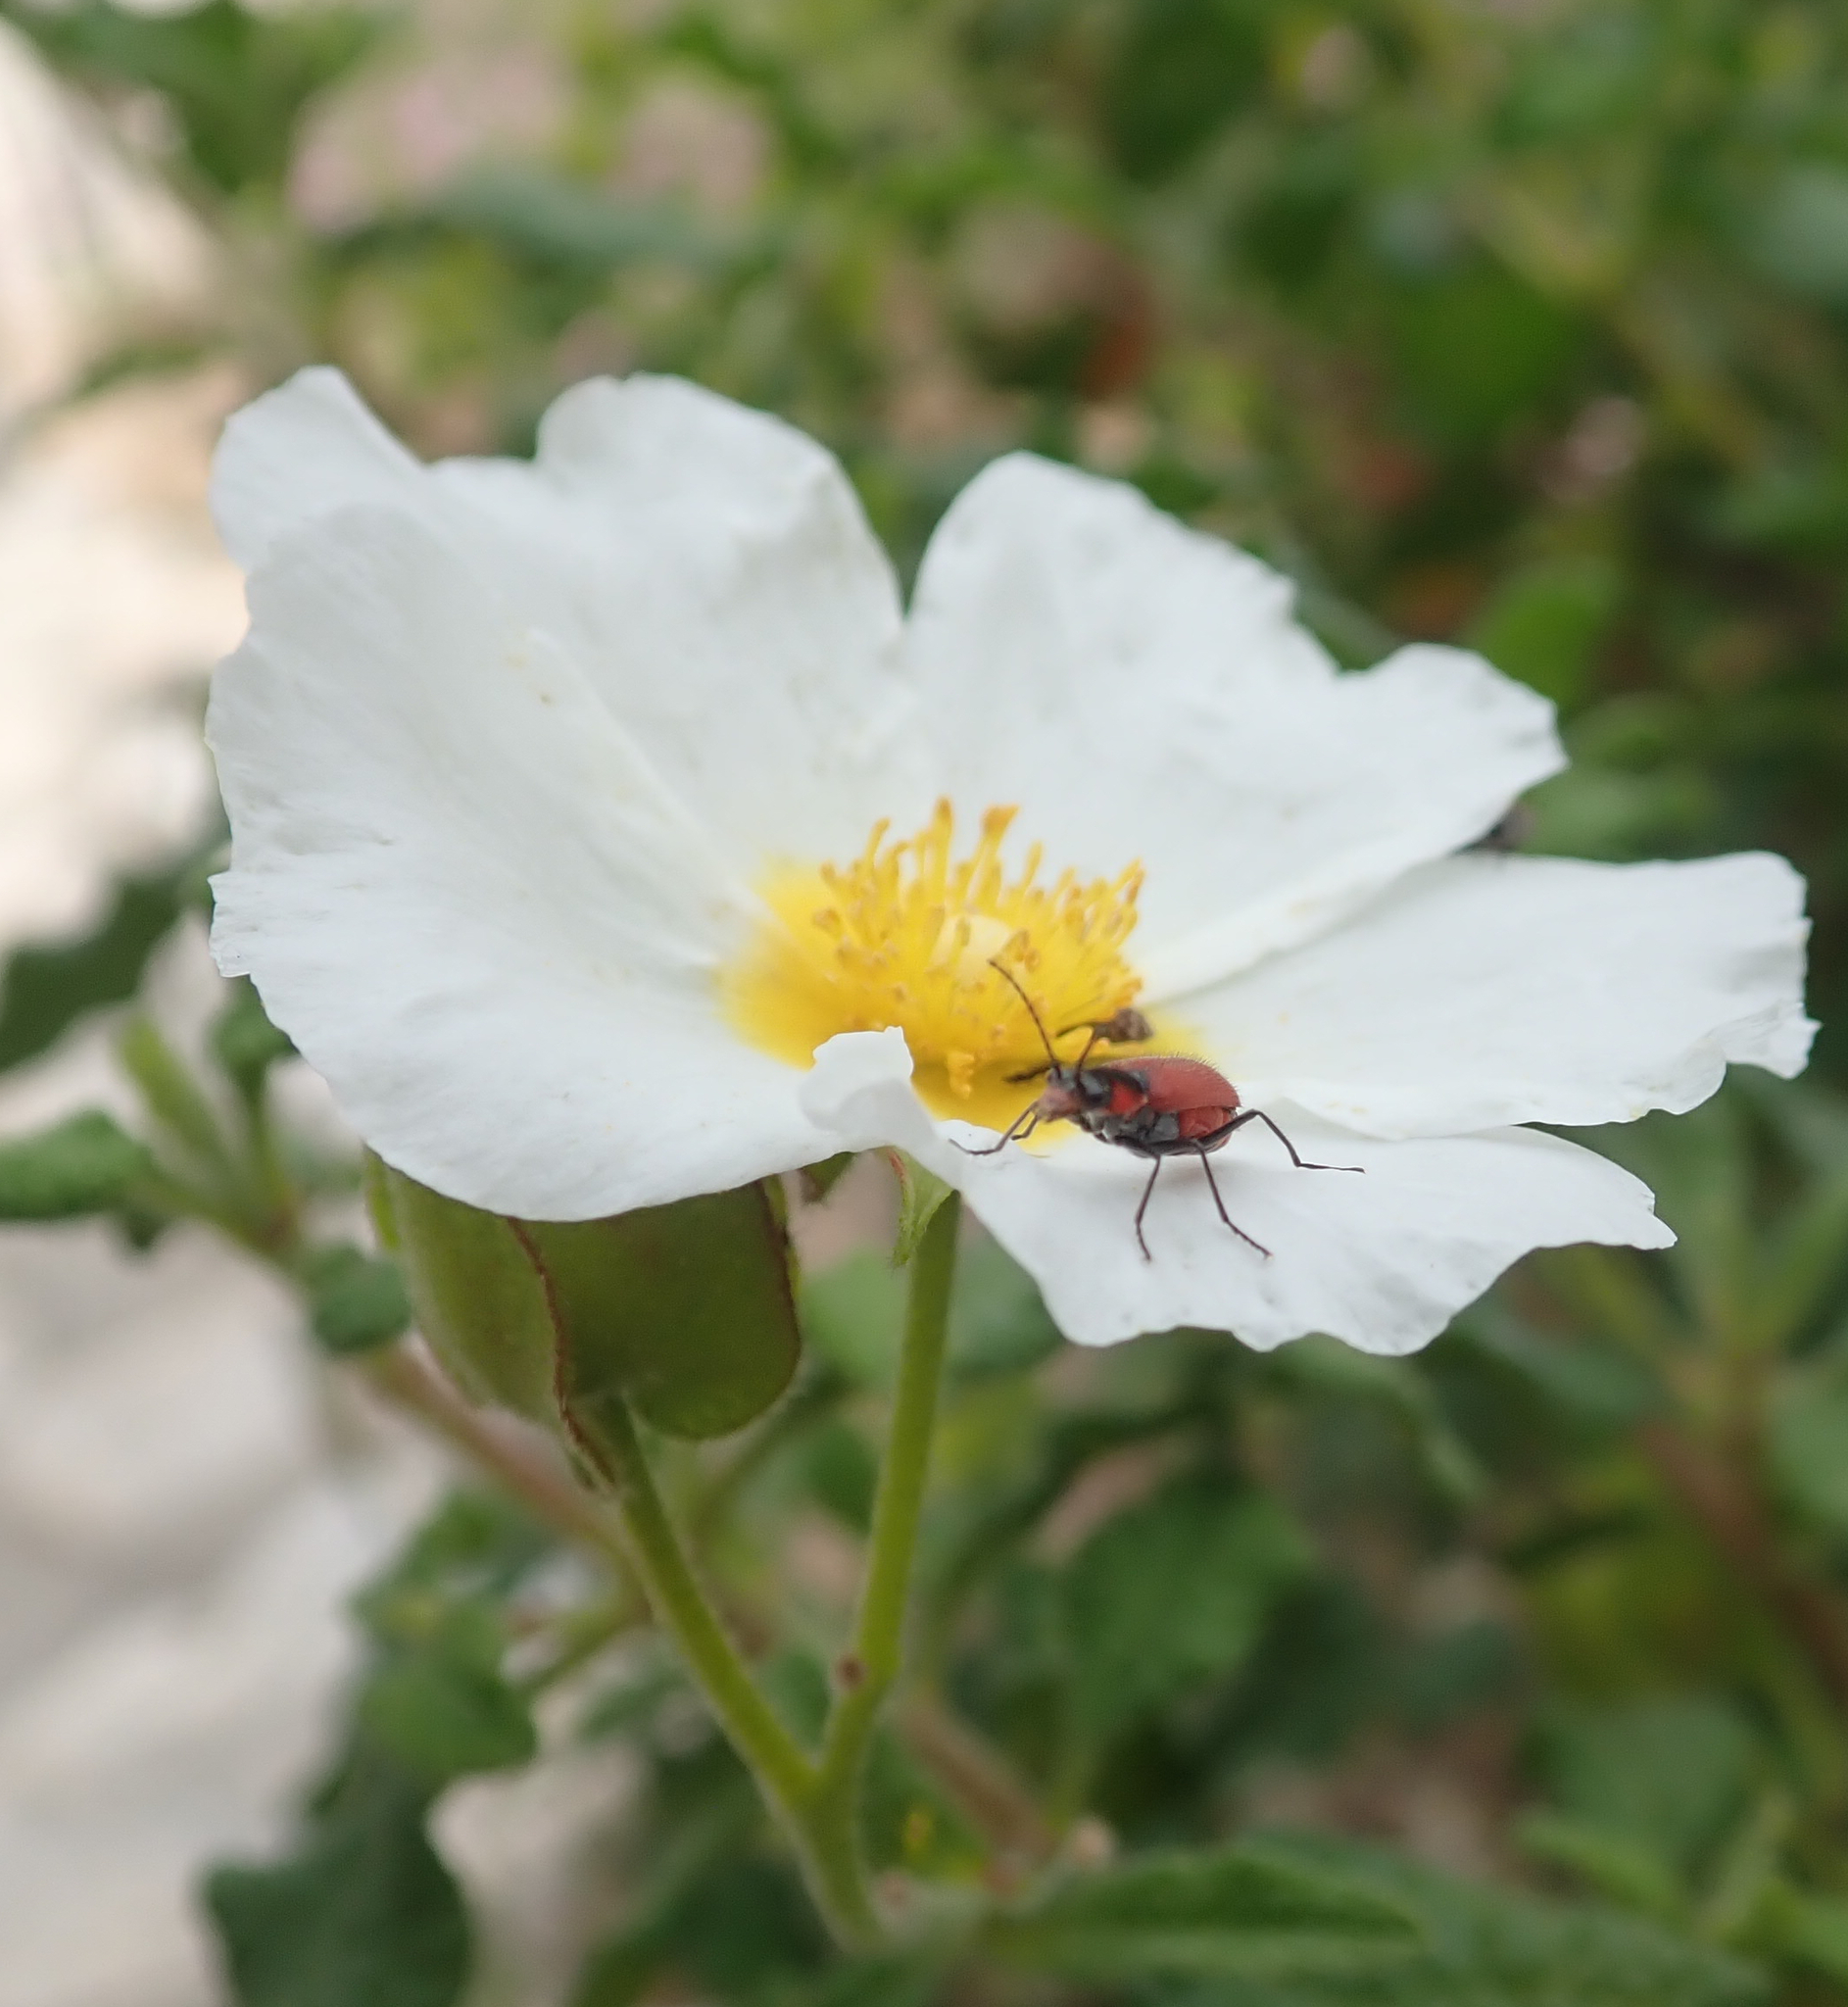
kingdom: Animalia
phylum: Arthropoda
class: Insecta
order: Coleoptera
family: Melyridae
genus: Malachius
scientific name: Malachius coccineus
